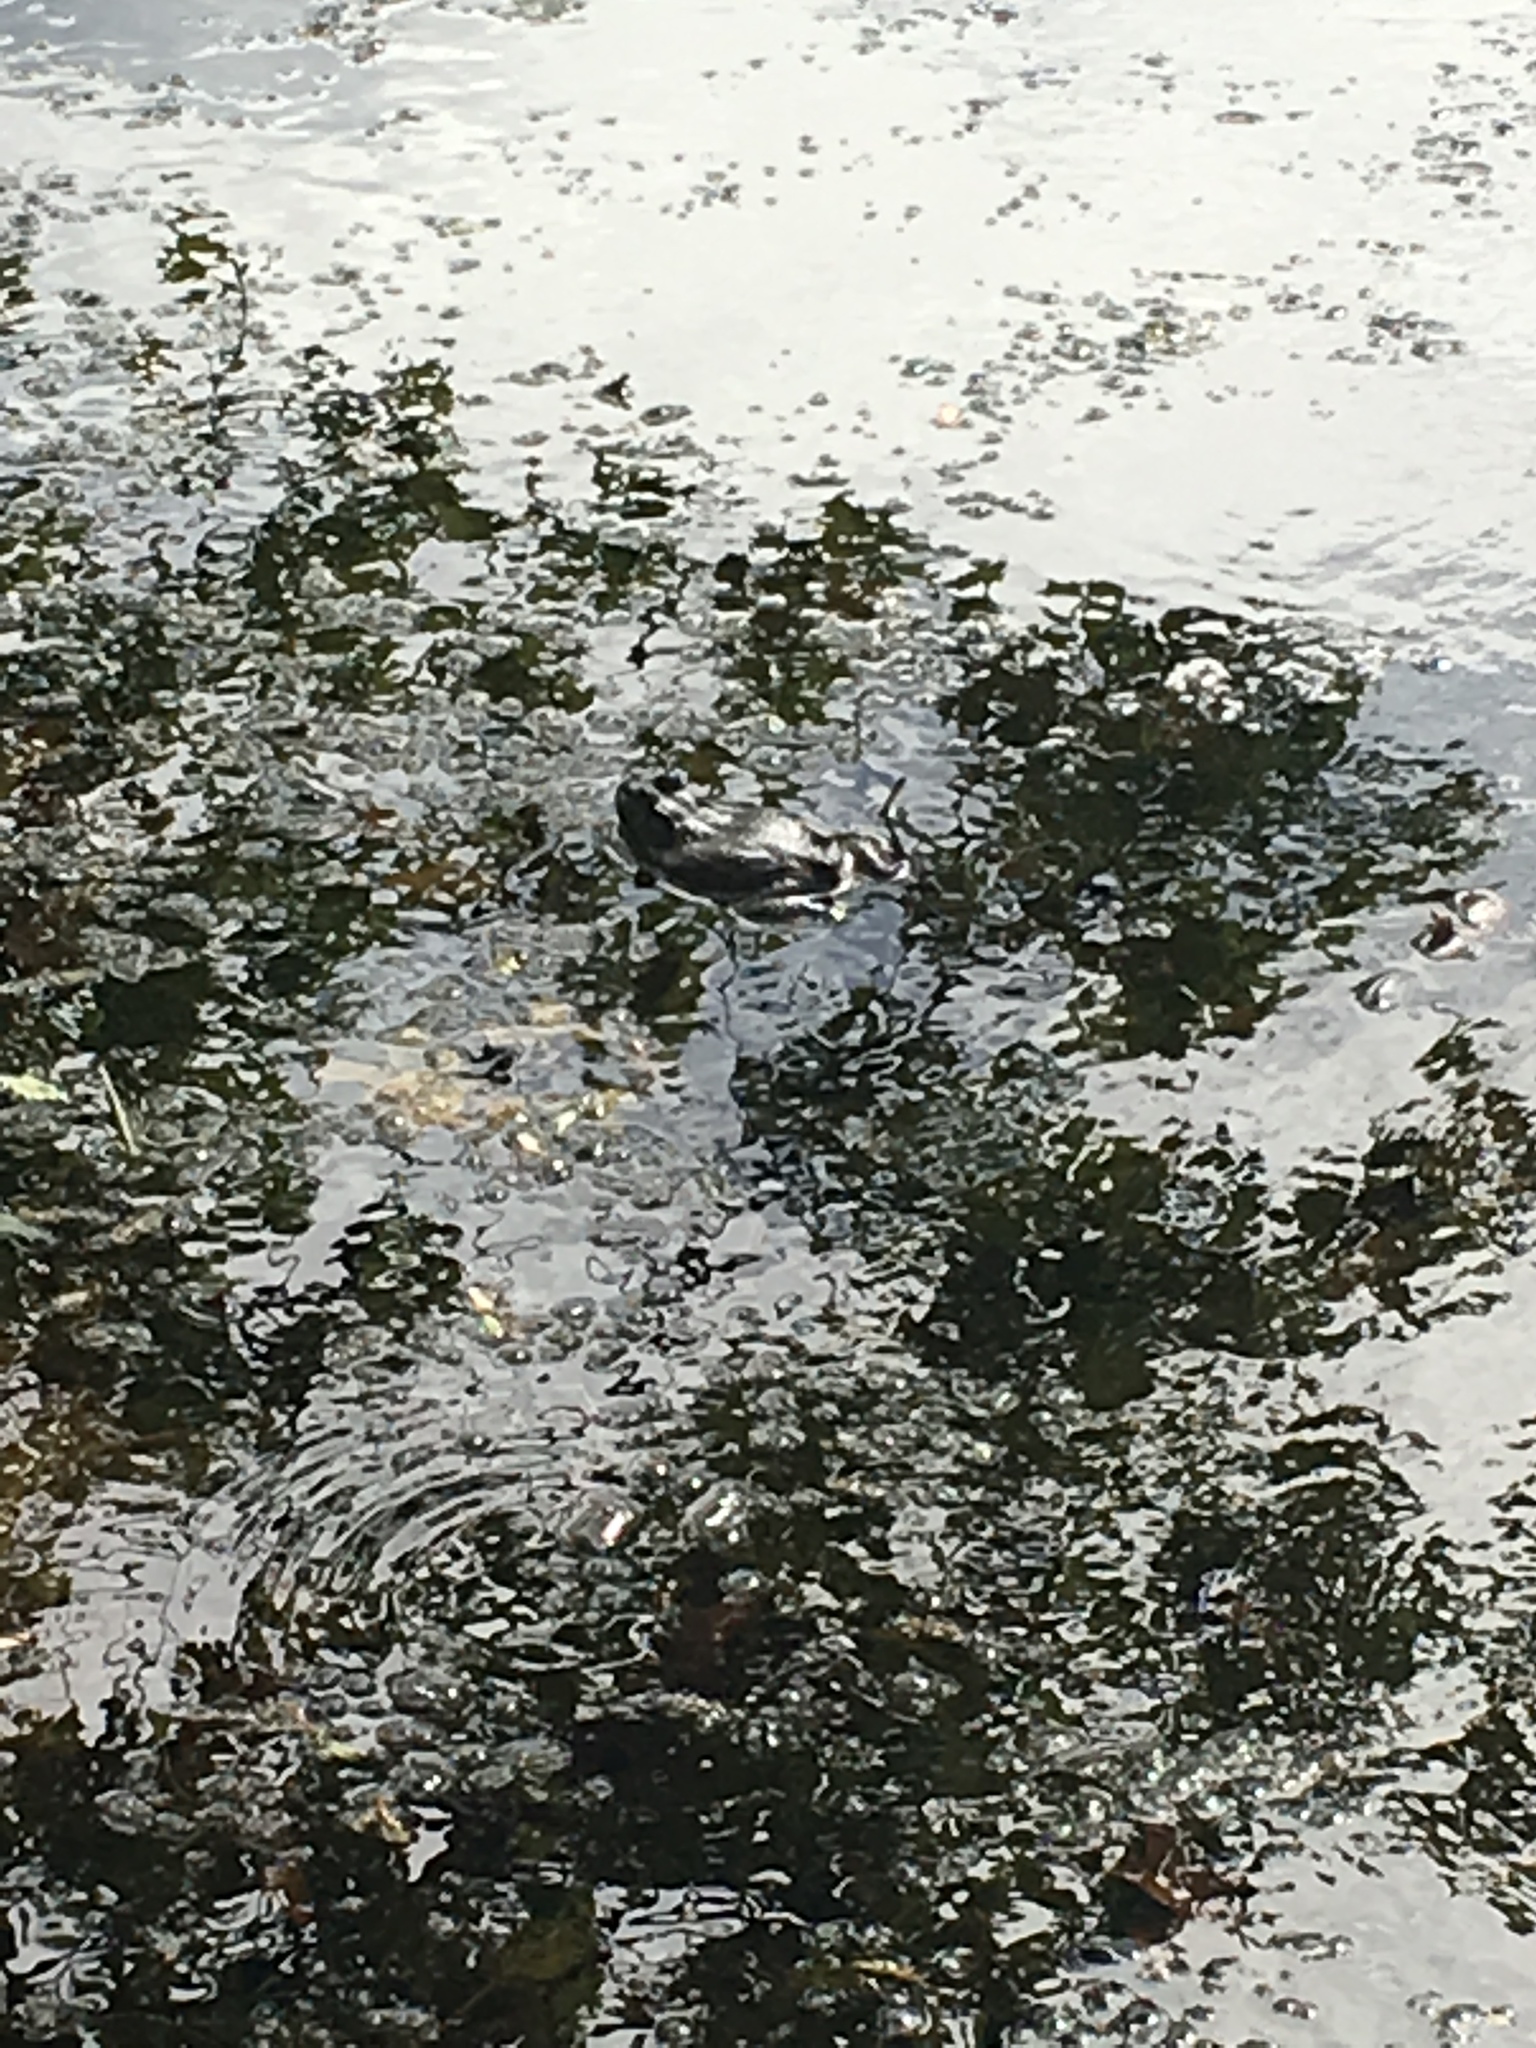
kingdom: Animalia
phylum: Chordata
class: Amphibia
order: Anura
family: Ranidae
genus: Lithobates
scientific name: Lithobates catesbeianus
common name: American bullfrog
